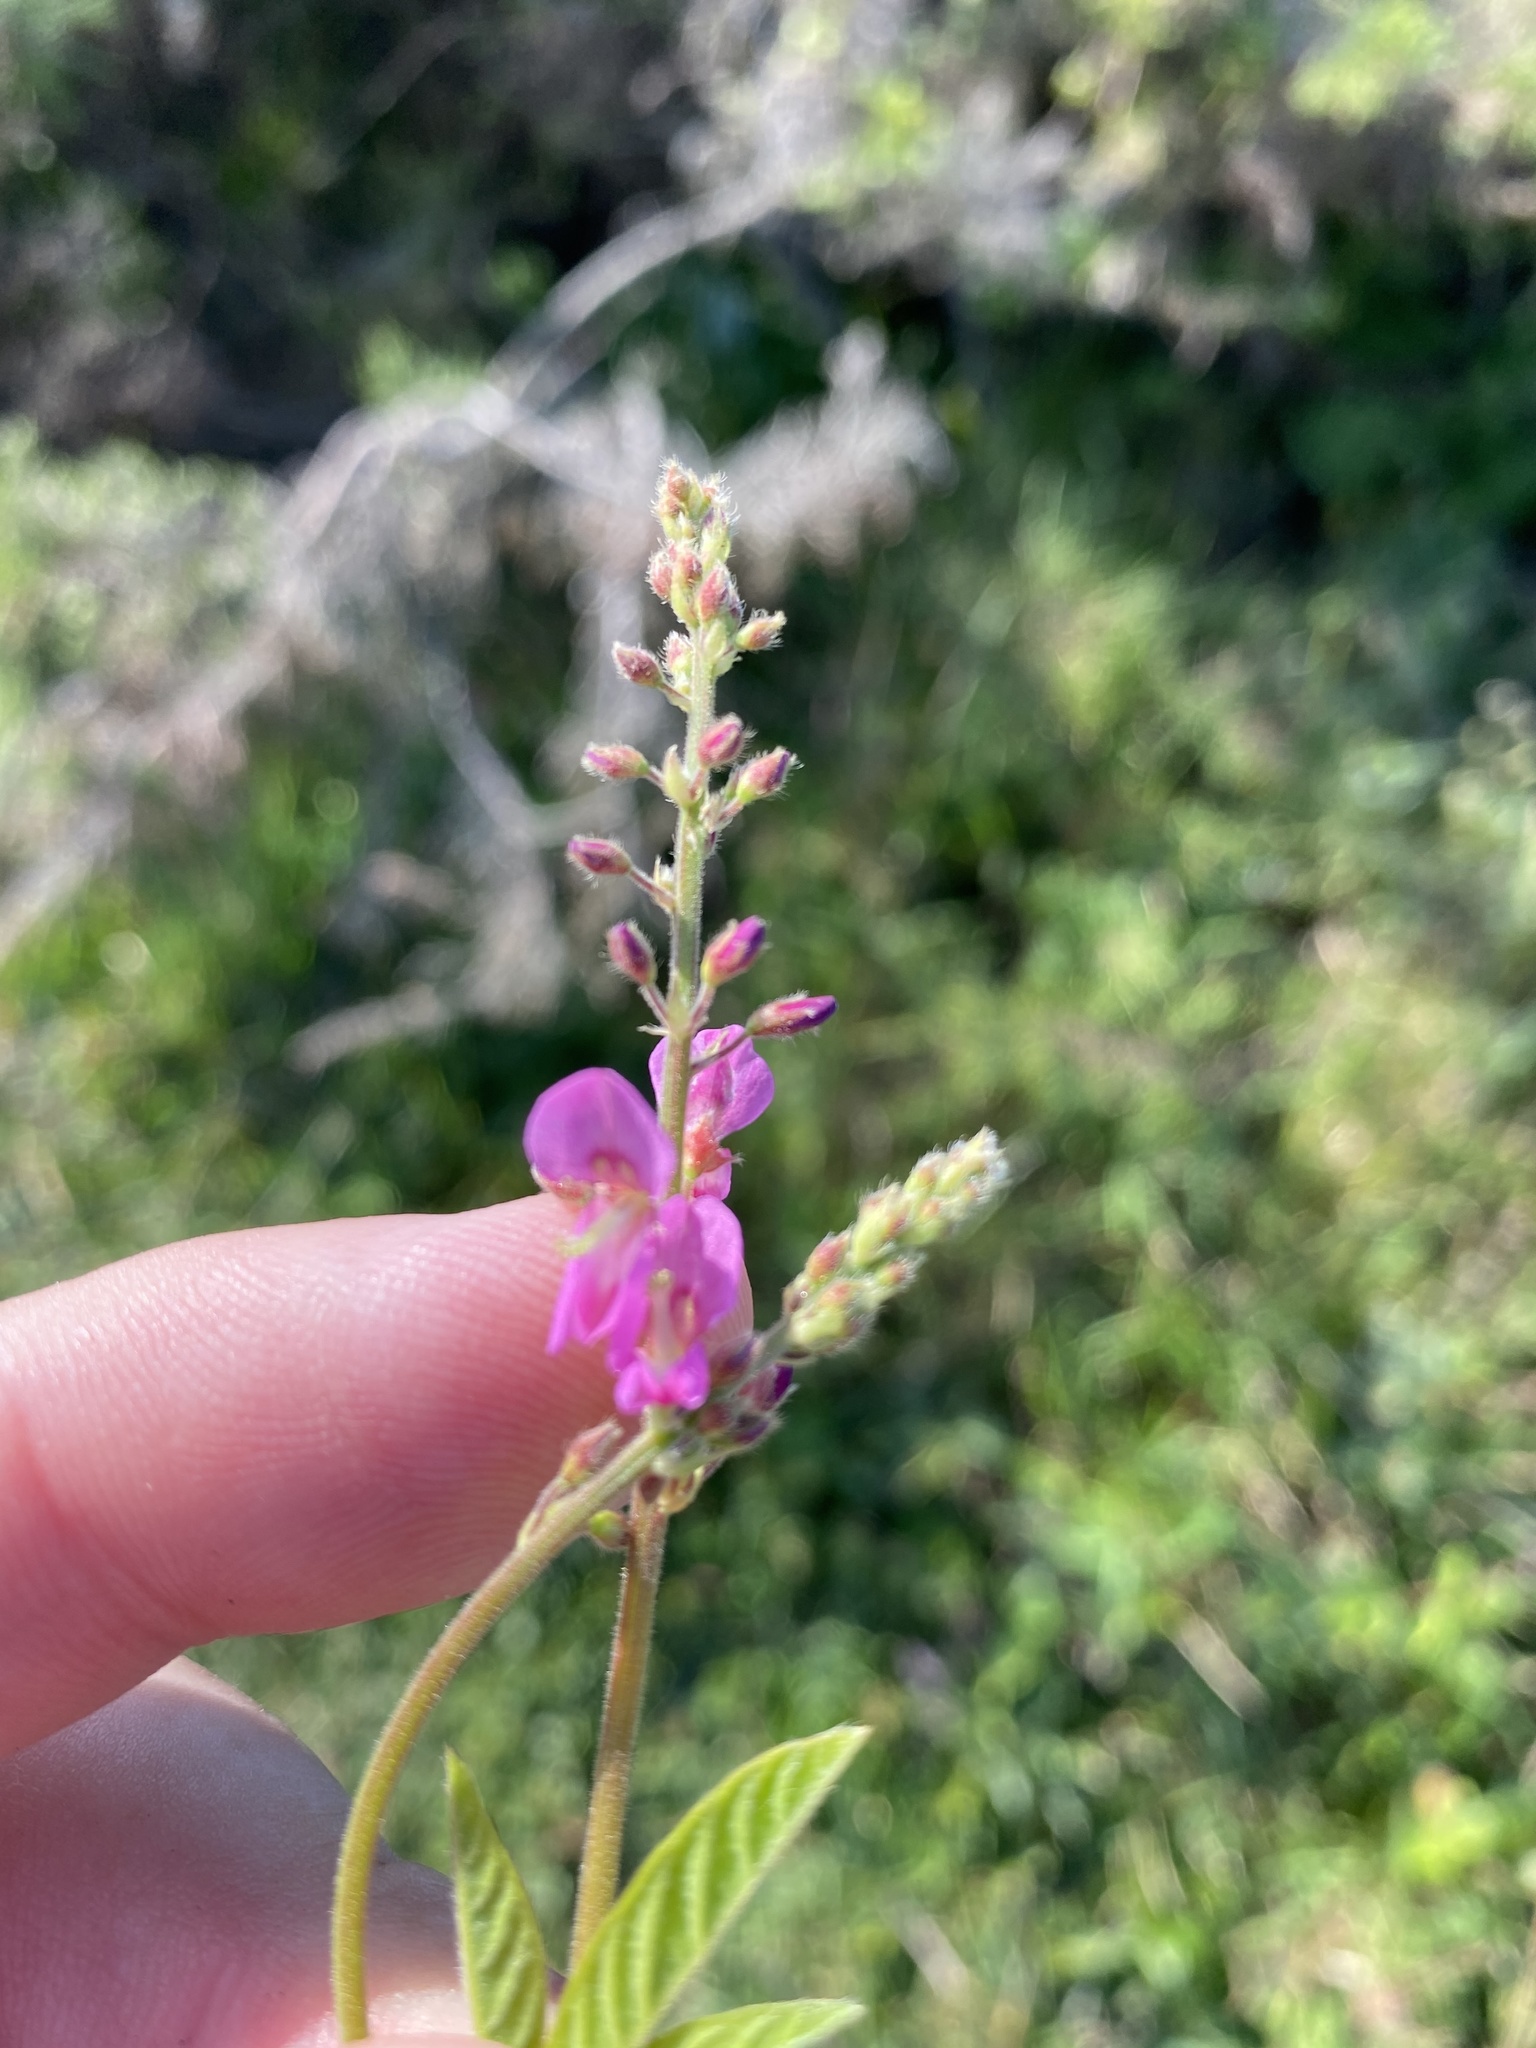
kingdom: Plantae
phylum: Tracheophyta
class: Magnoliopsida
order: Fabales
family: Fabaceae
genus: Desmodium
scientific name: Desmodium incanum
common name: Tickclover
